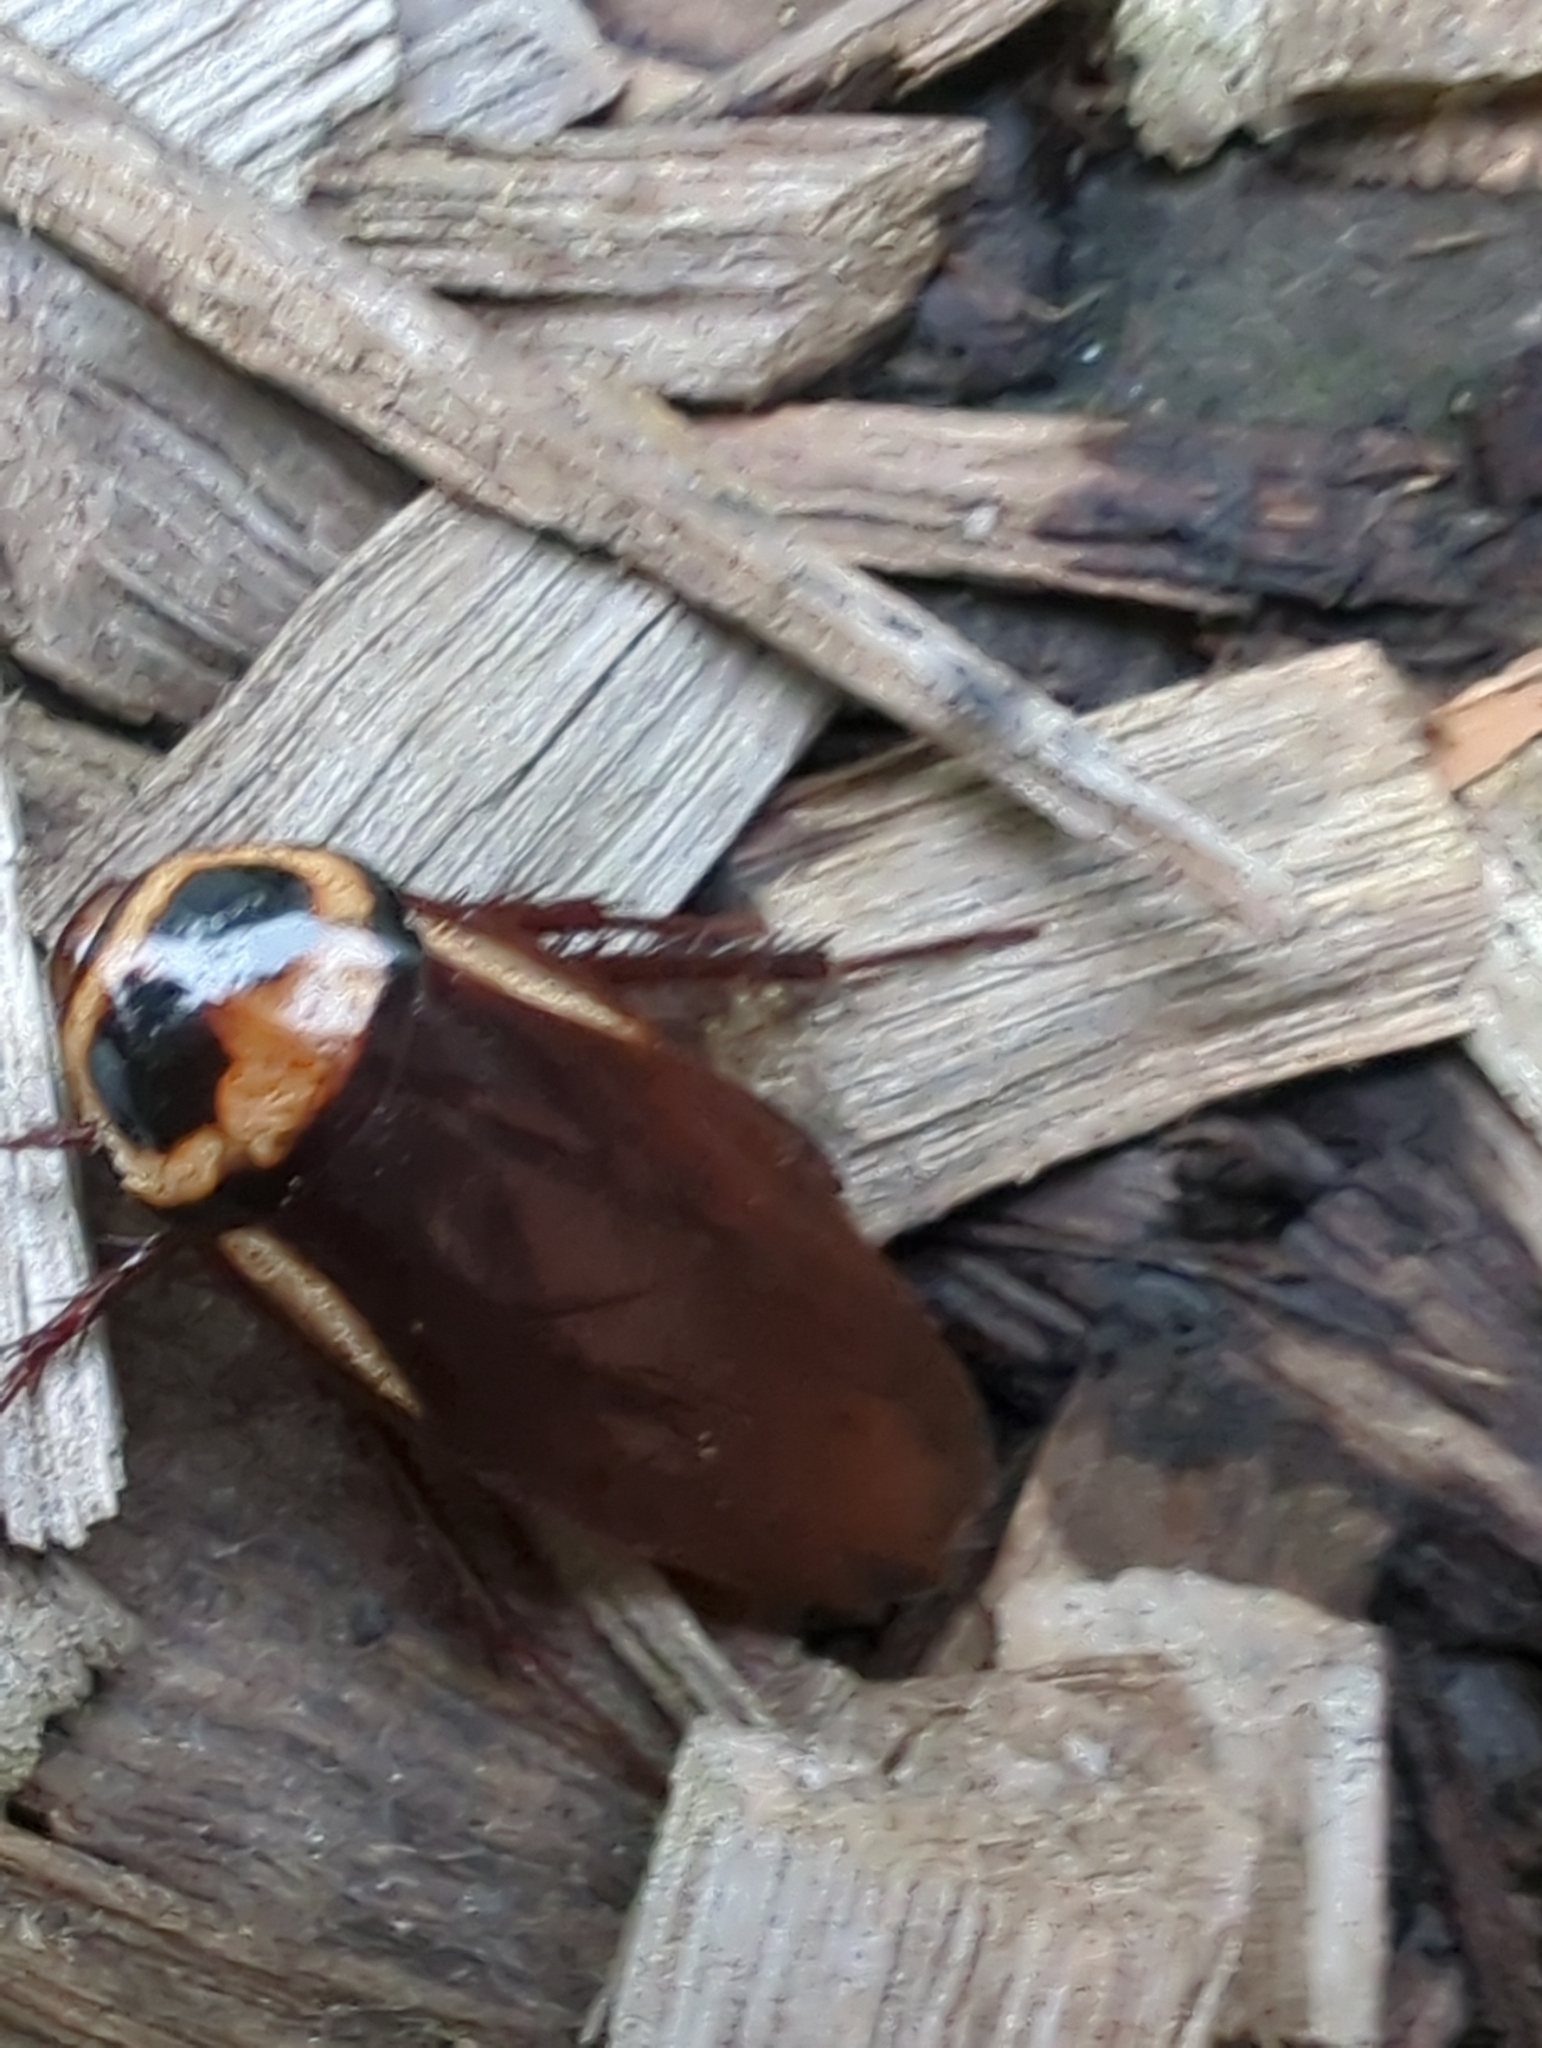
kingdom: Animalia
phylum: Arthropoda
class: Insecta
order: Blattodea
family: Blattidae
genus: Periplaneta
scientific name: Periplaneta australasiae
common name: Australian cockroach
